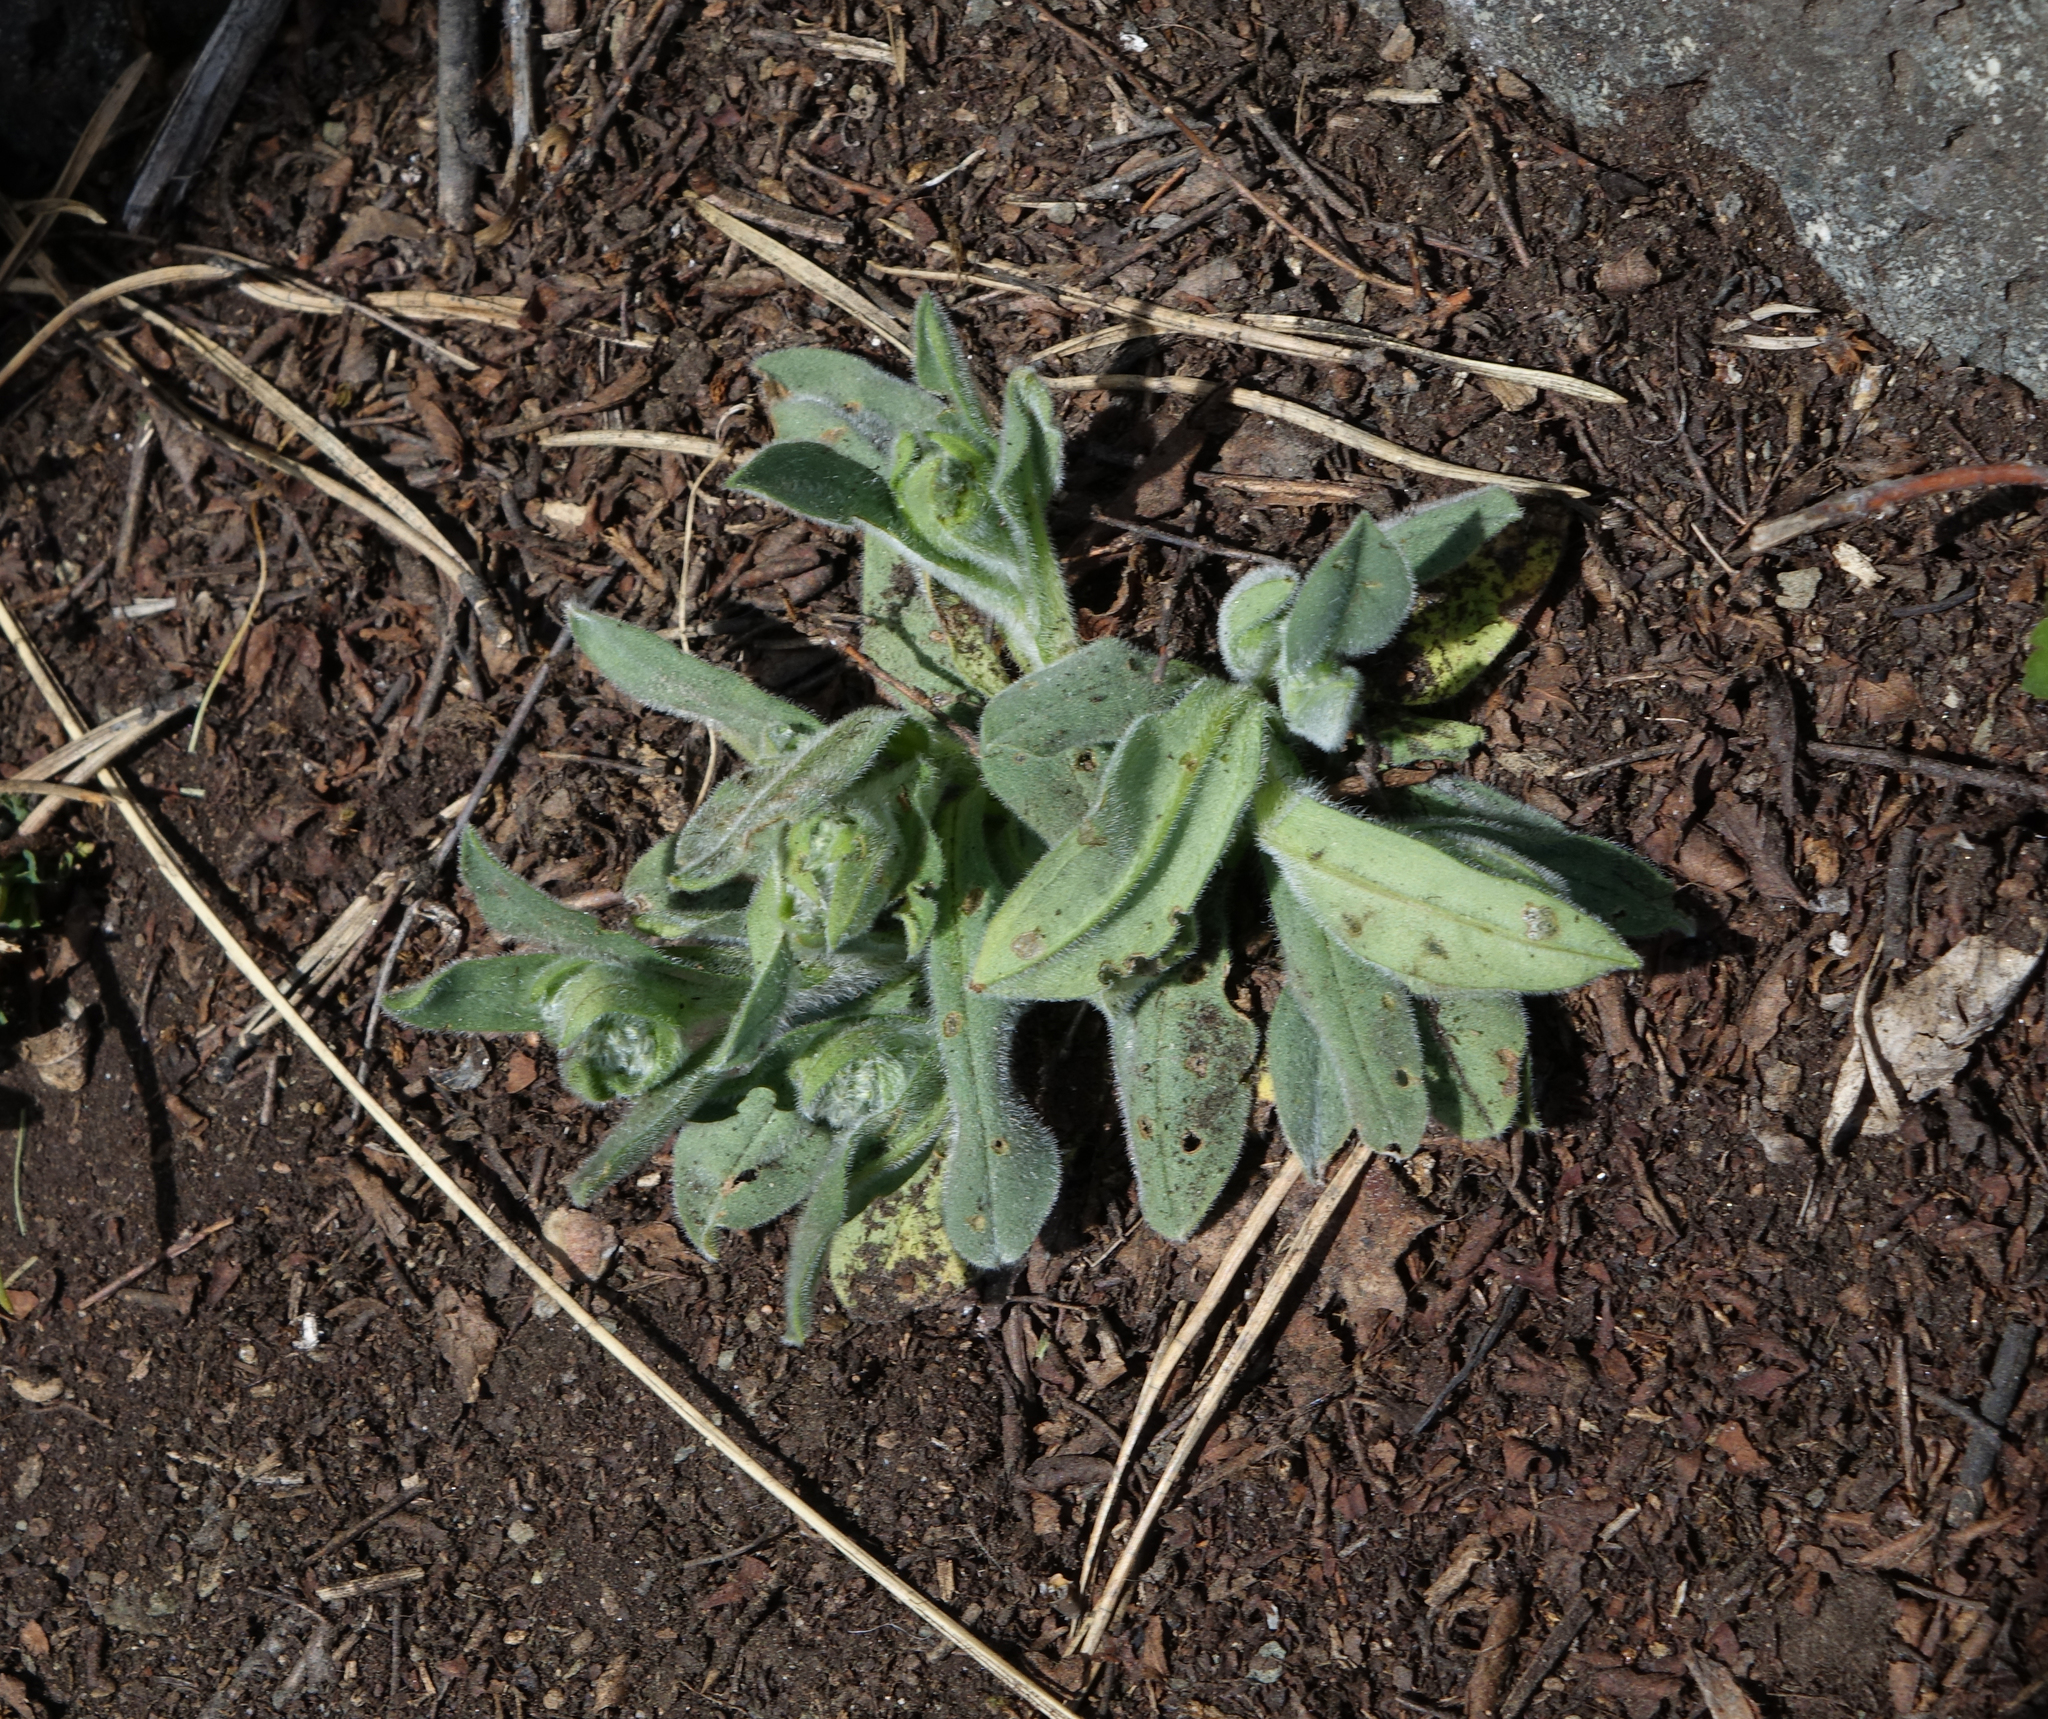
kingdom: Plantae
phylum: Tracheophyta
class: Magnoliopsida
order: Boraginales
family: Boraginaceae
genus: Nonea
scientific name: Nonea pulla
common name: Brown nonea
